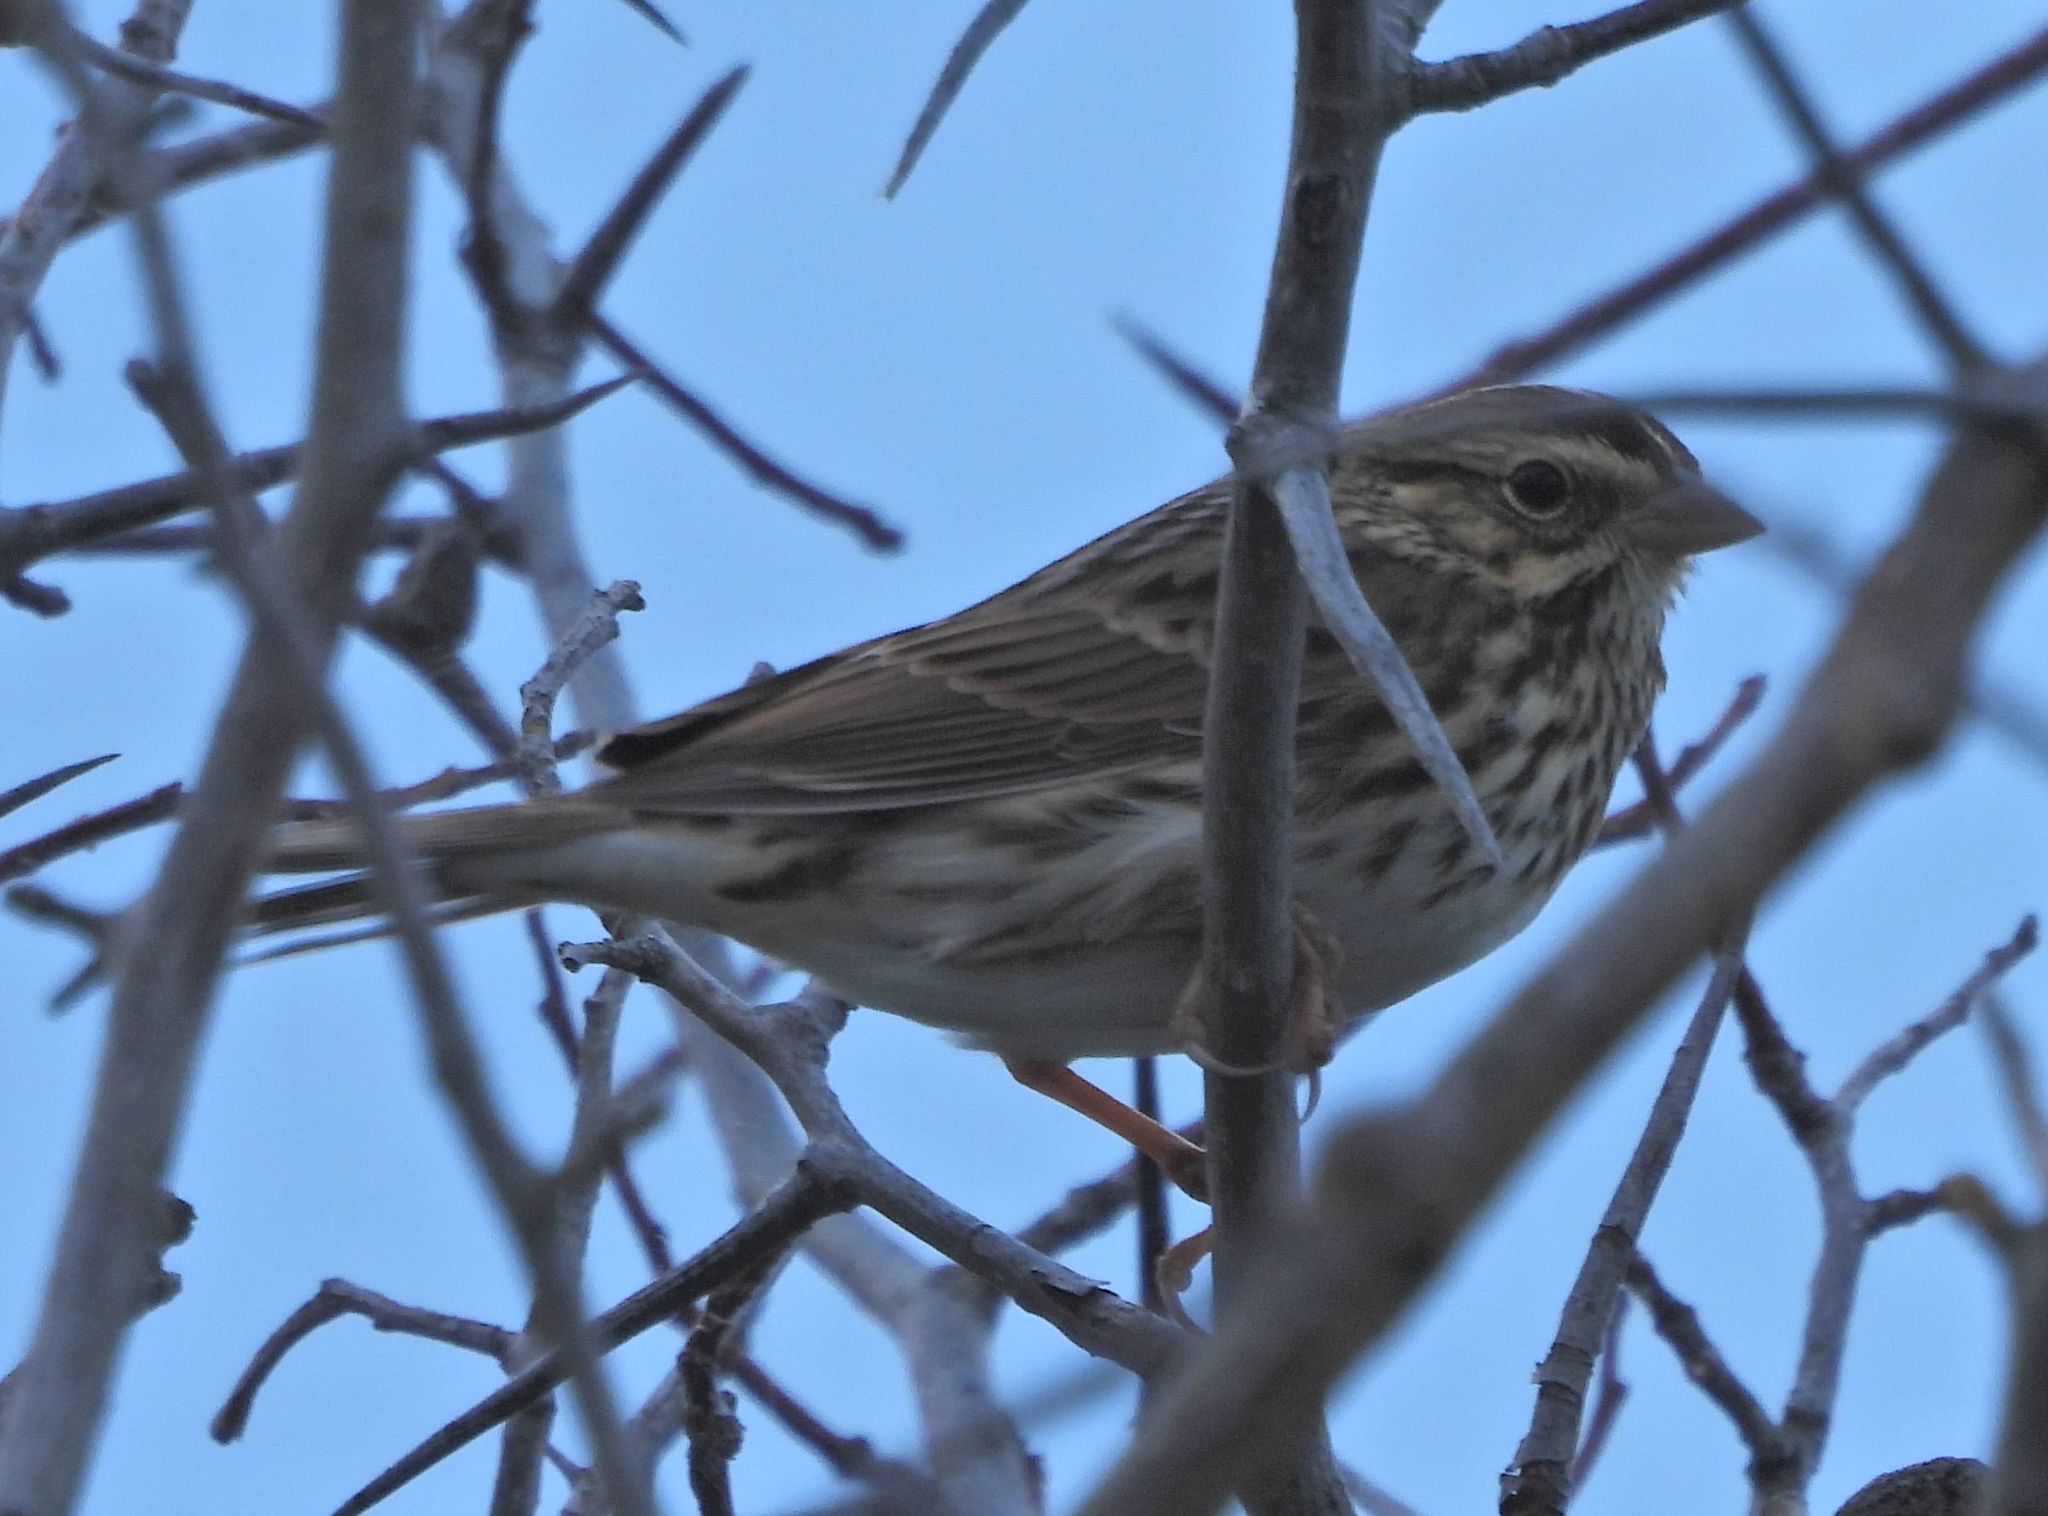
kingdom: Animalia
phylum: Chordata
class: Aves
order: Passeriformes
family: Passerellidae
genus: Passerculus
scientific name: Passerculus sandwichensis
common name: Savannah sparrow
